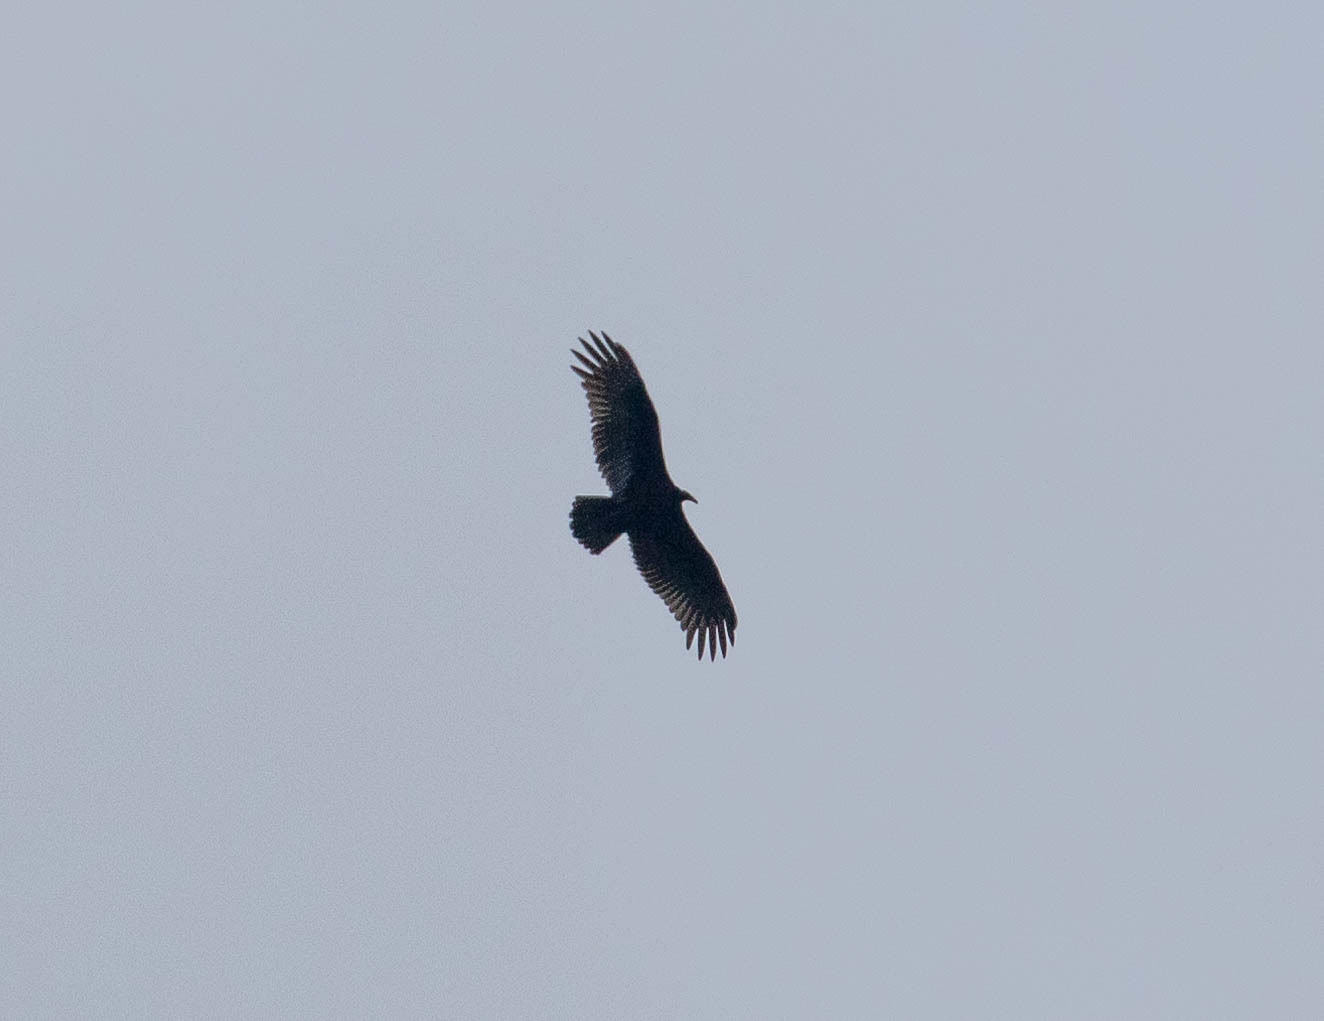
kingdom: Animalia
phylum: Chordata
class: Aves
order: Accipitriformes
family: Cathartidae
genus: Cathartes
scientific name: Cathartes aura
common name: Turkey vulture
